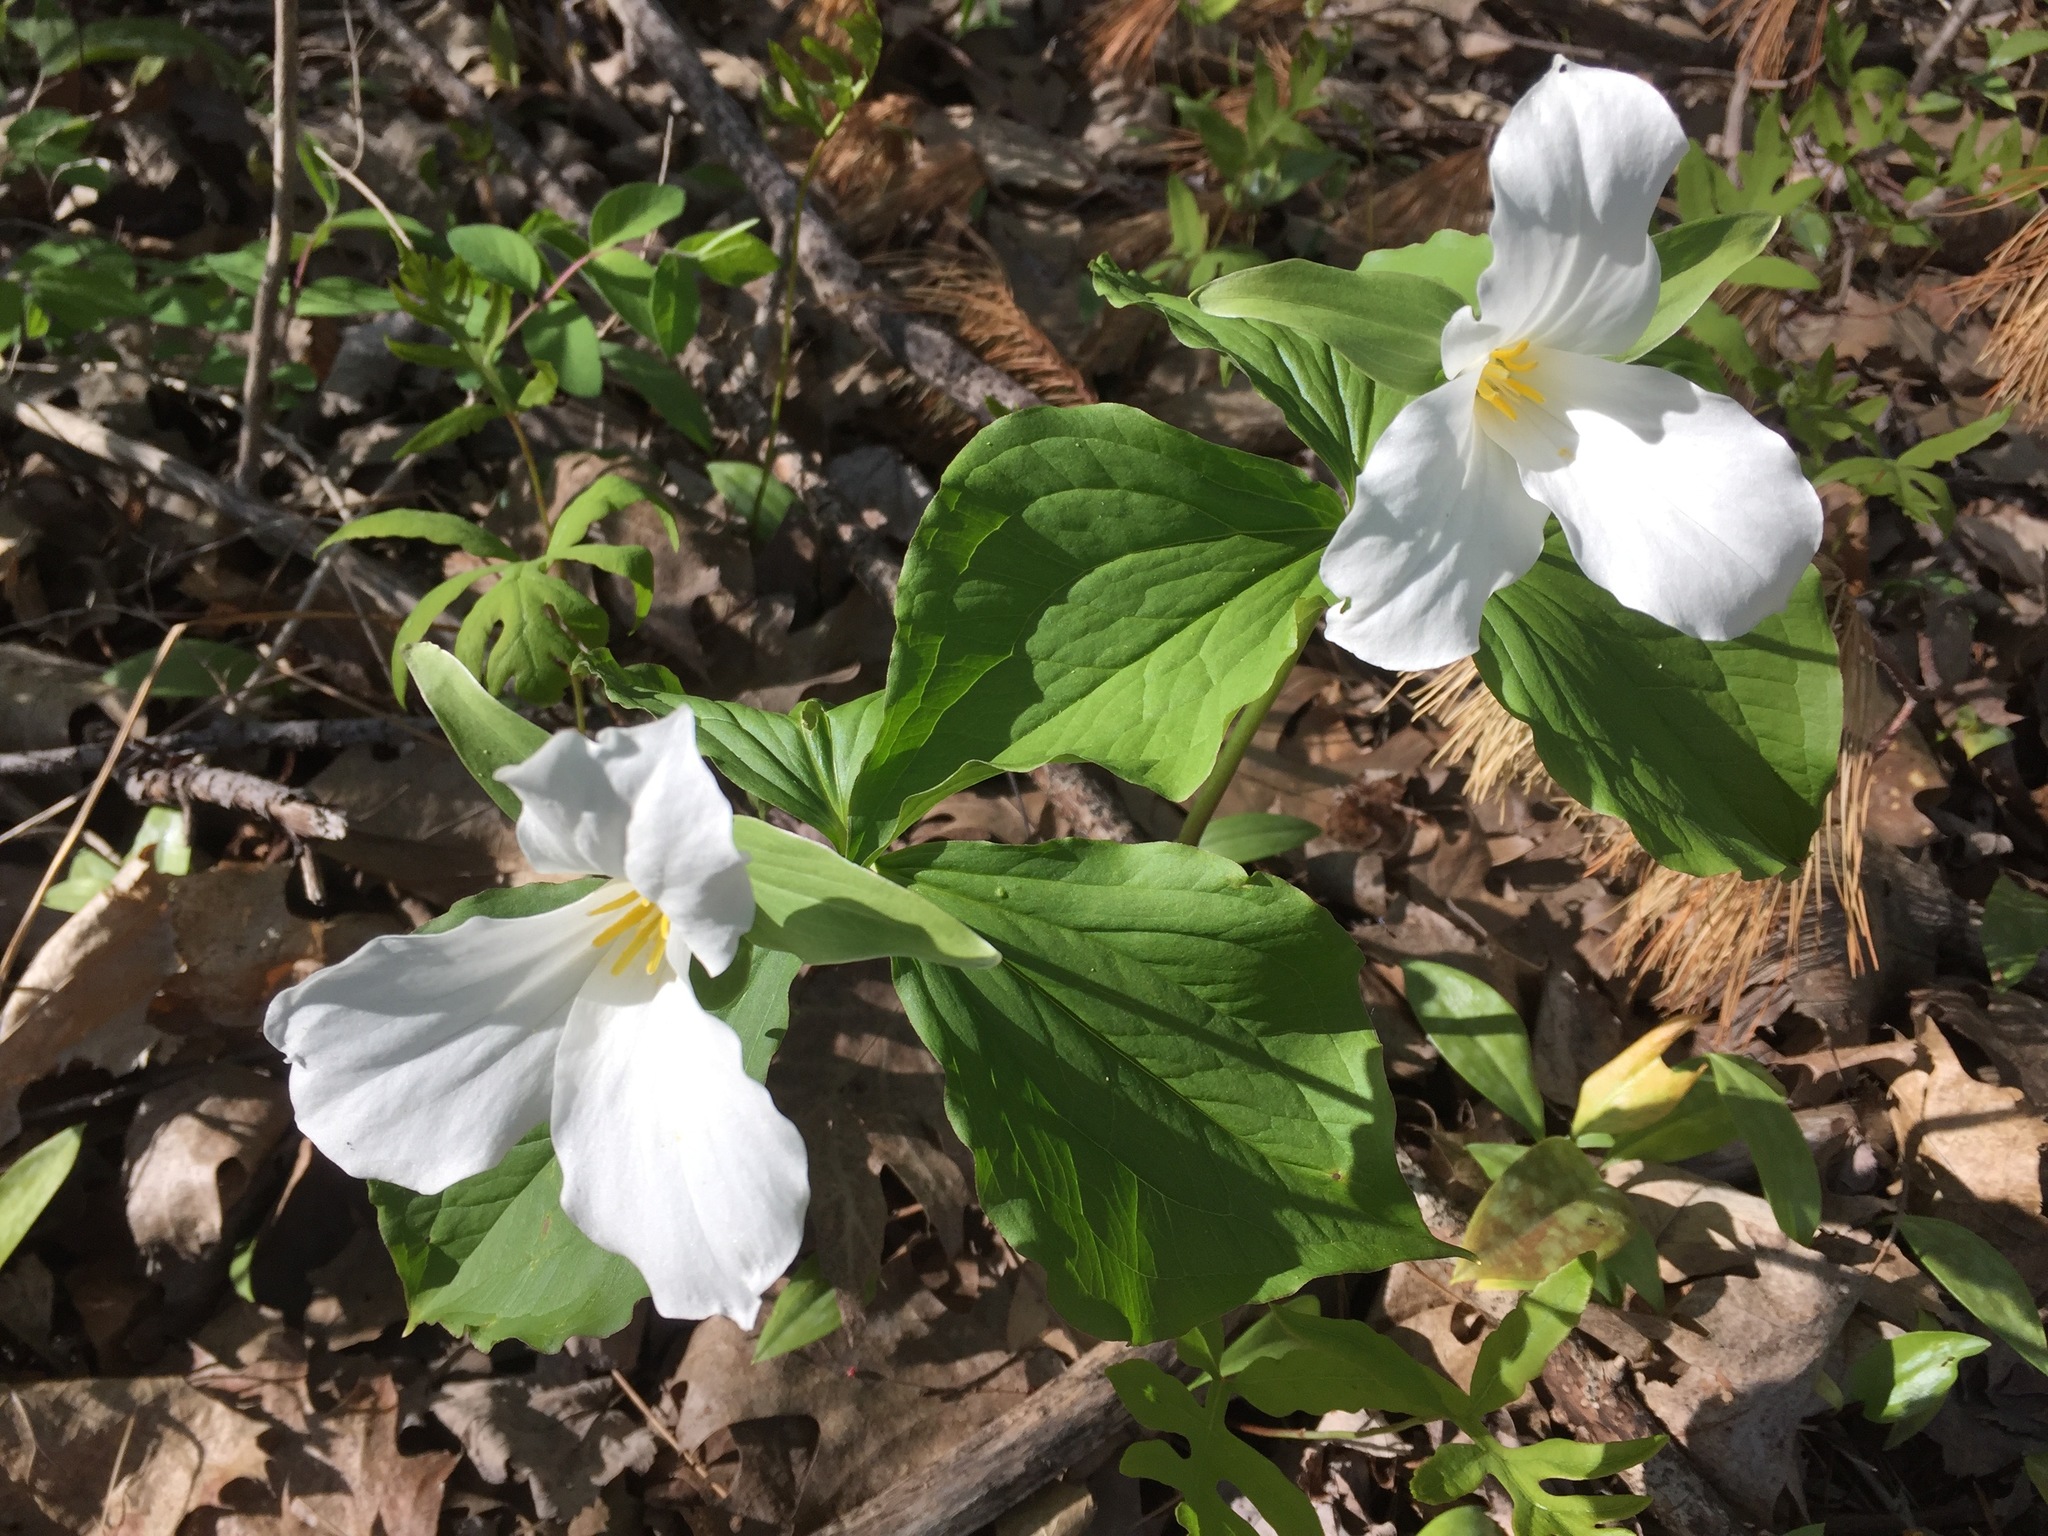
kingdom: Plantae
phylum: Tracheophyta
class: Liliopsida
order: Liliales
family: Melanthiaceae
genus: Trillium
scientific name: Trillium grandiflorum
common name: Great white trillium
